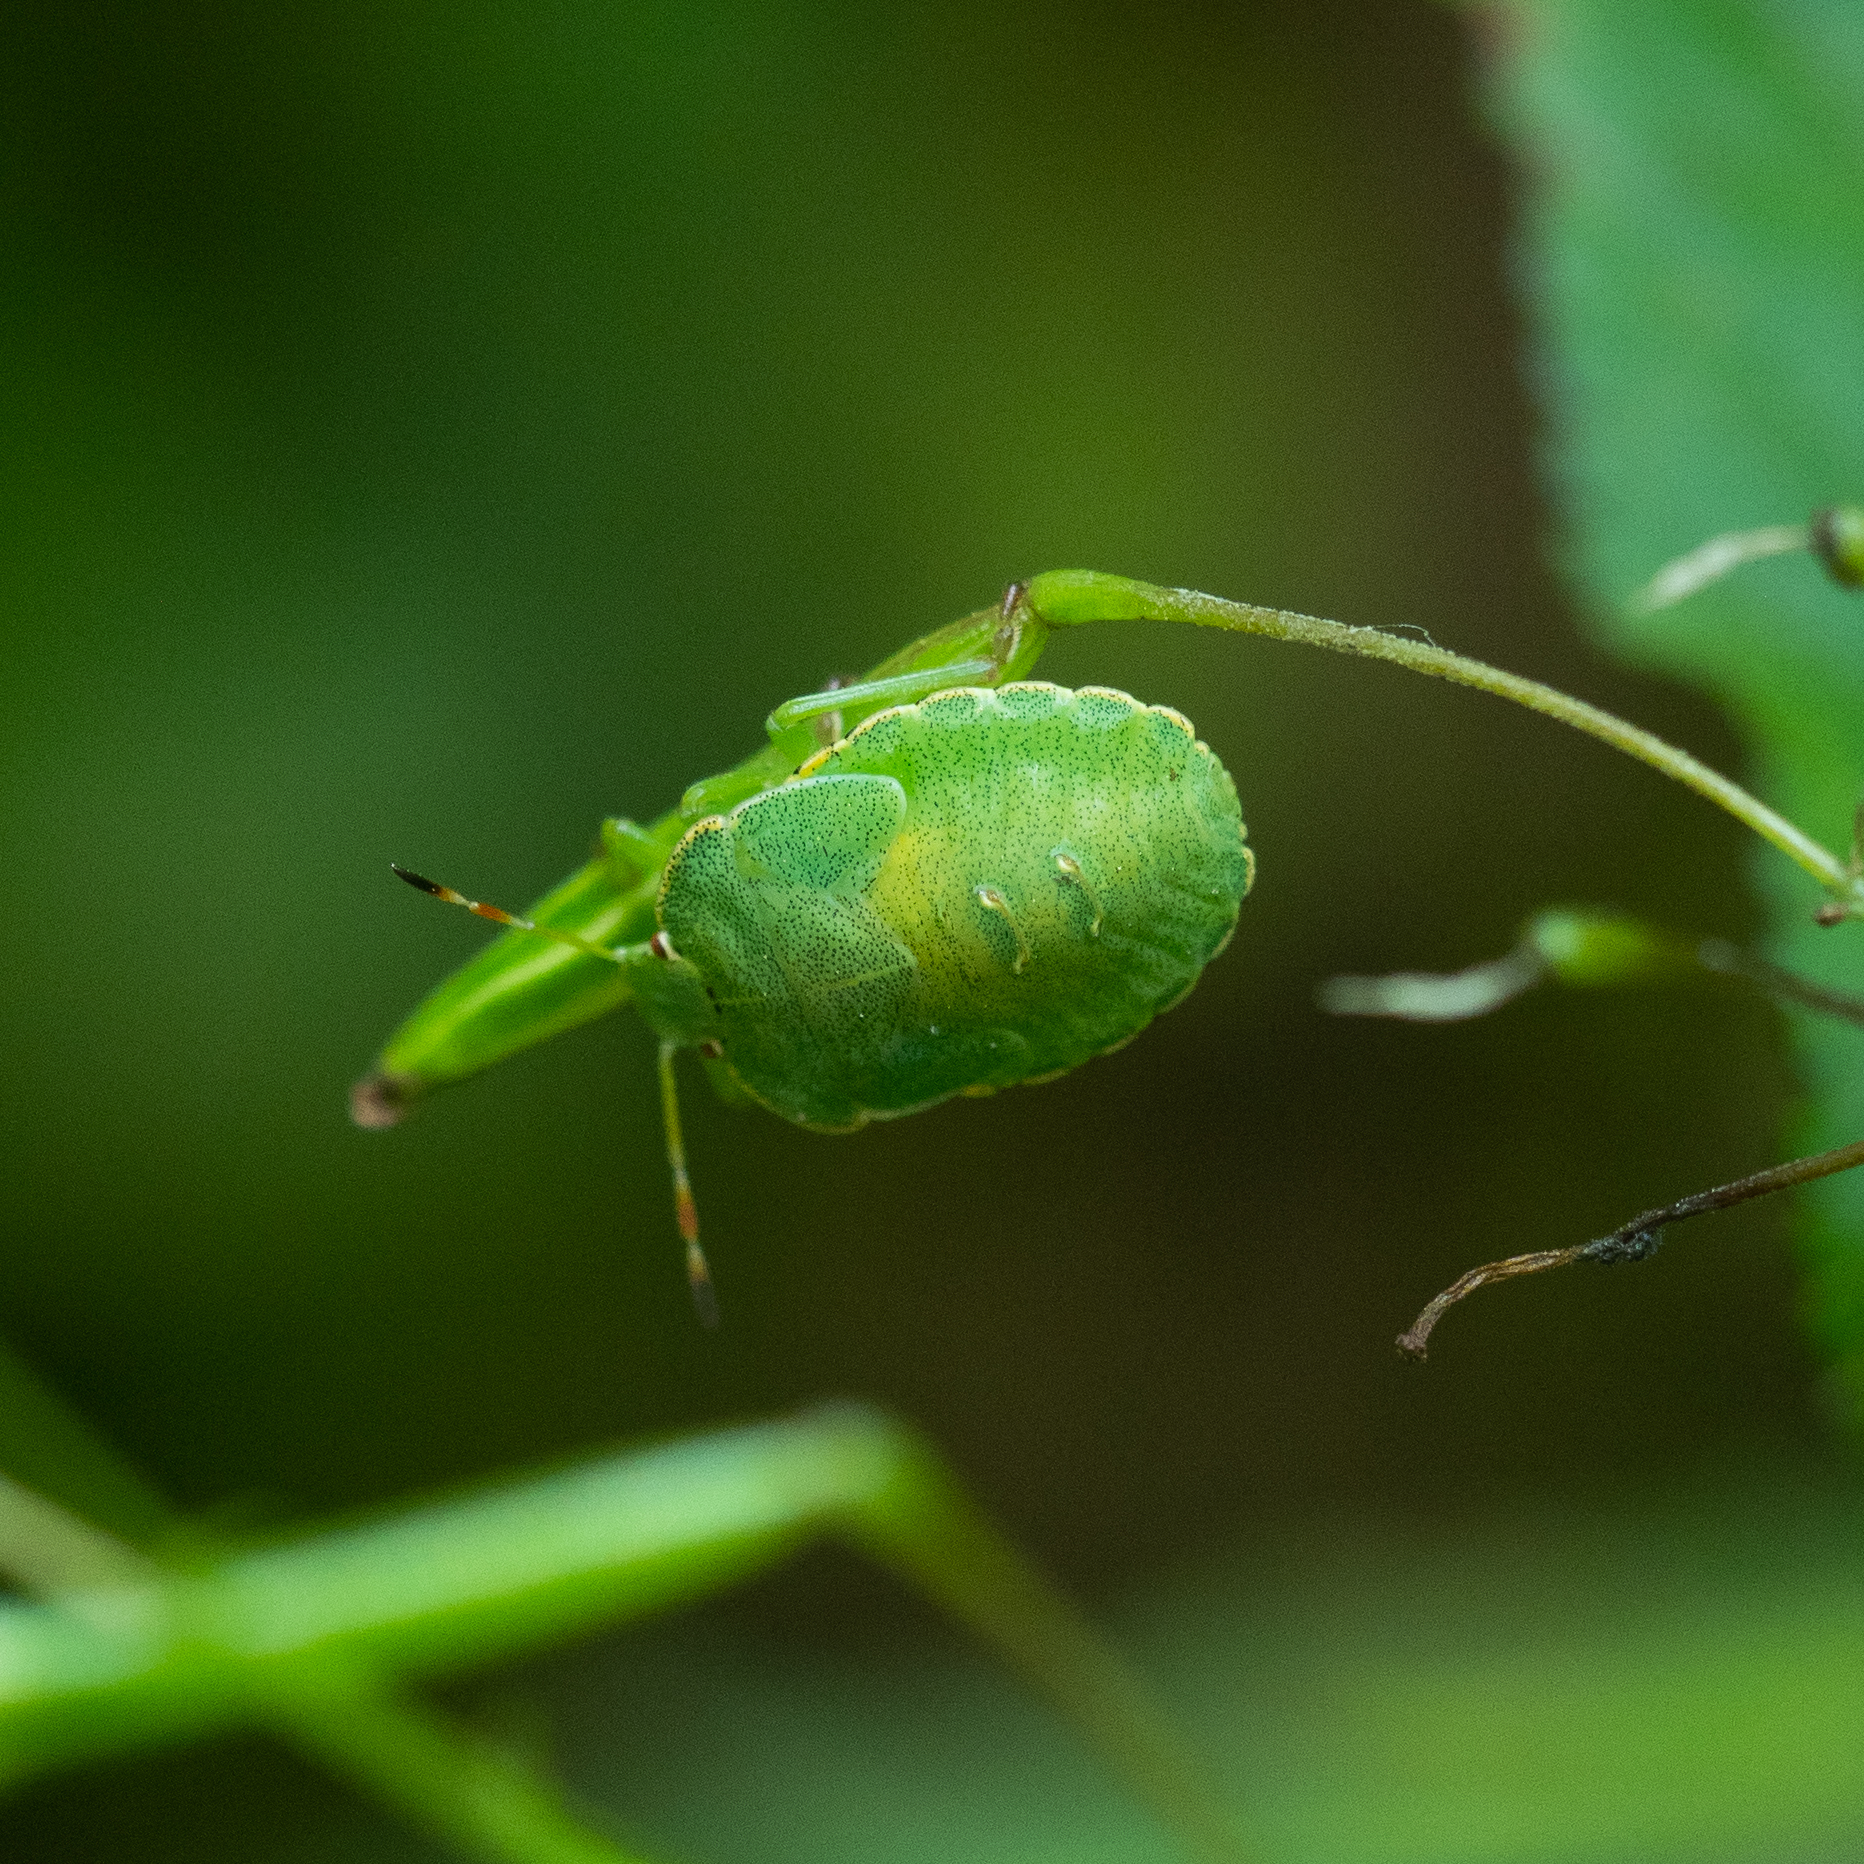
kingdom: Animalia
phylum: Arthropoda
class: Insecta
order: Hemiptera
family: Pentatomidae
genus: Palomena
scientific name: Palomena prasina
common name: Green shieldbug
